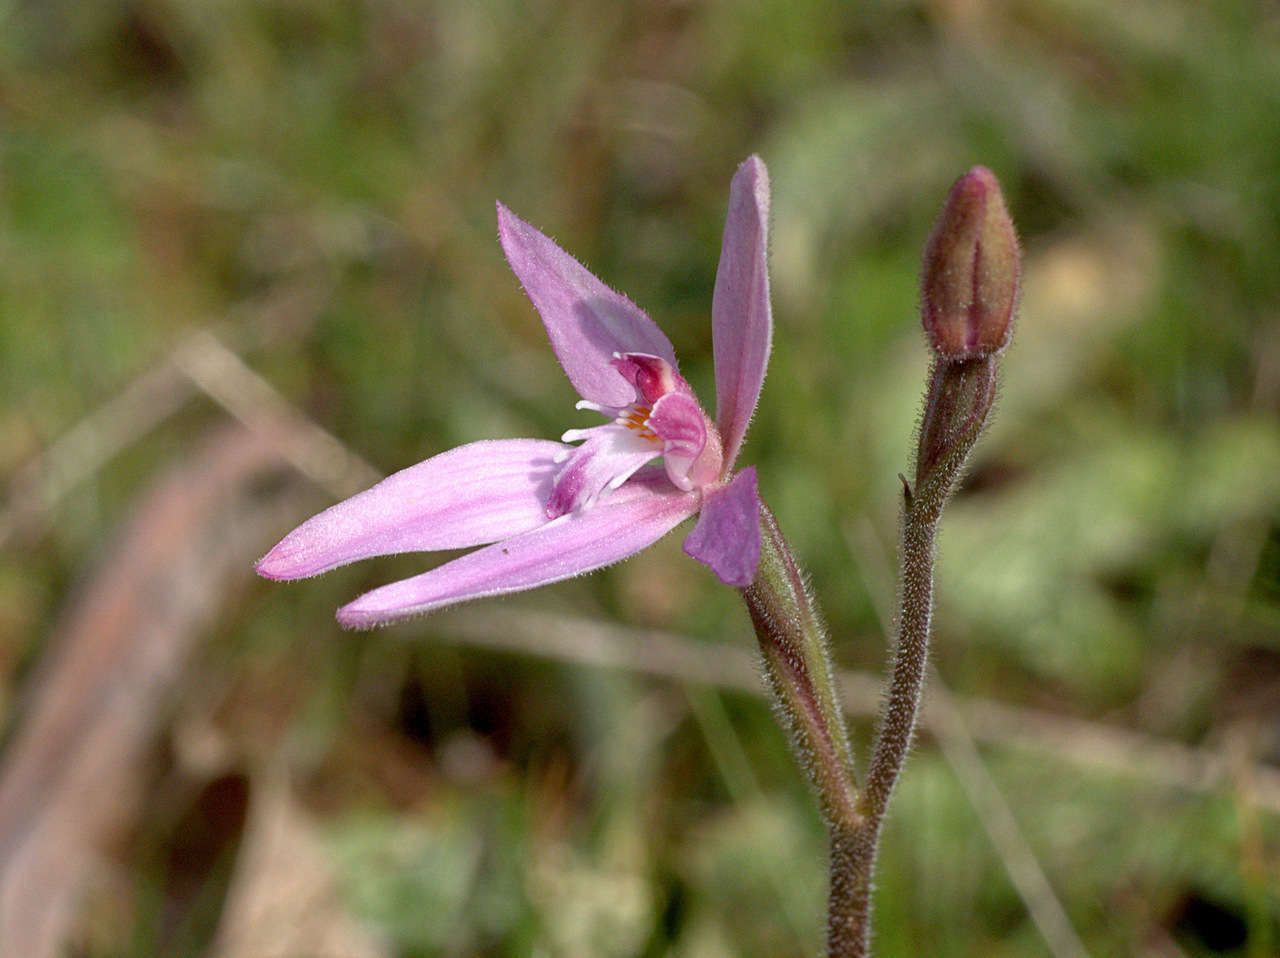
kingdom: Plantae
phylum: Tracheophyta
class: Liliopsida
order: Asparagales
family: Orchidaceae
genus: Caladenia
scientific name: Caladenia latifolia
